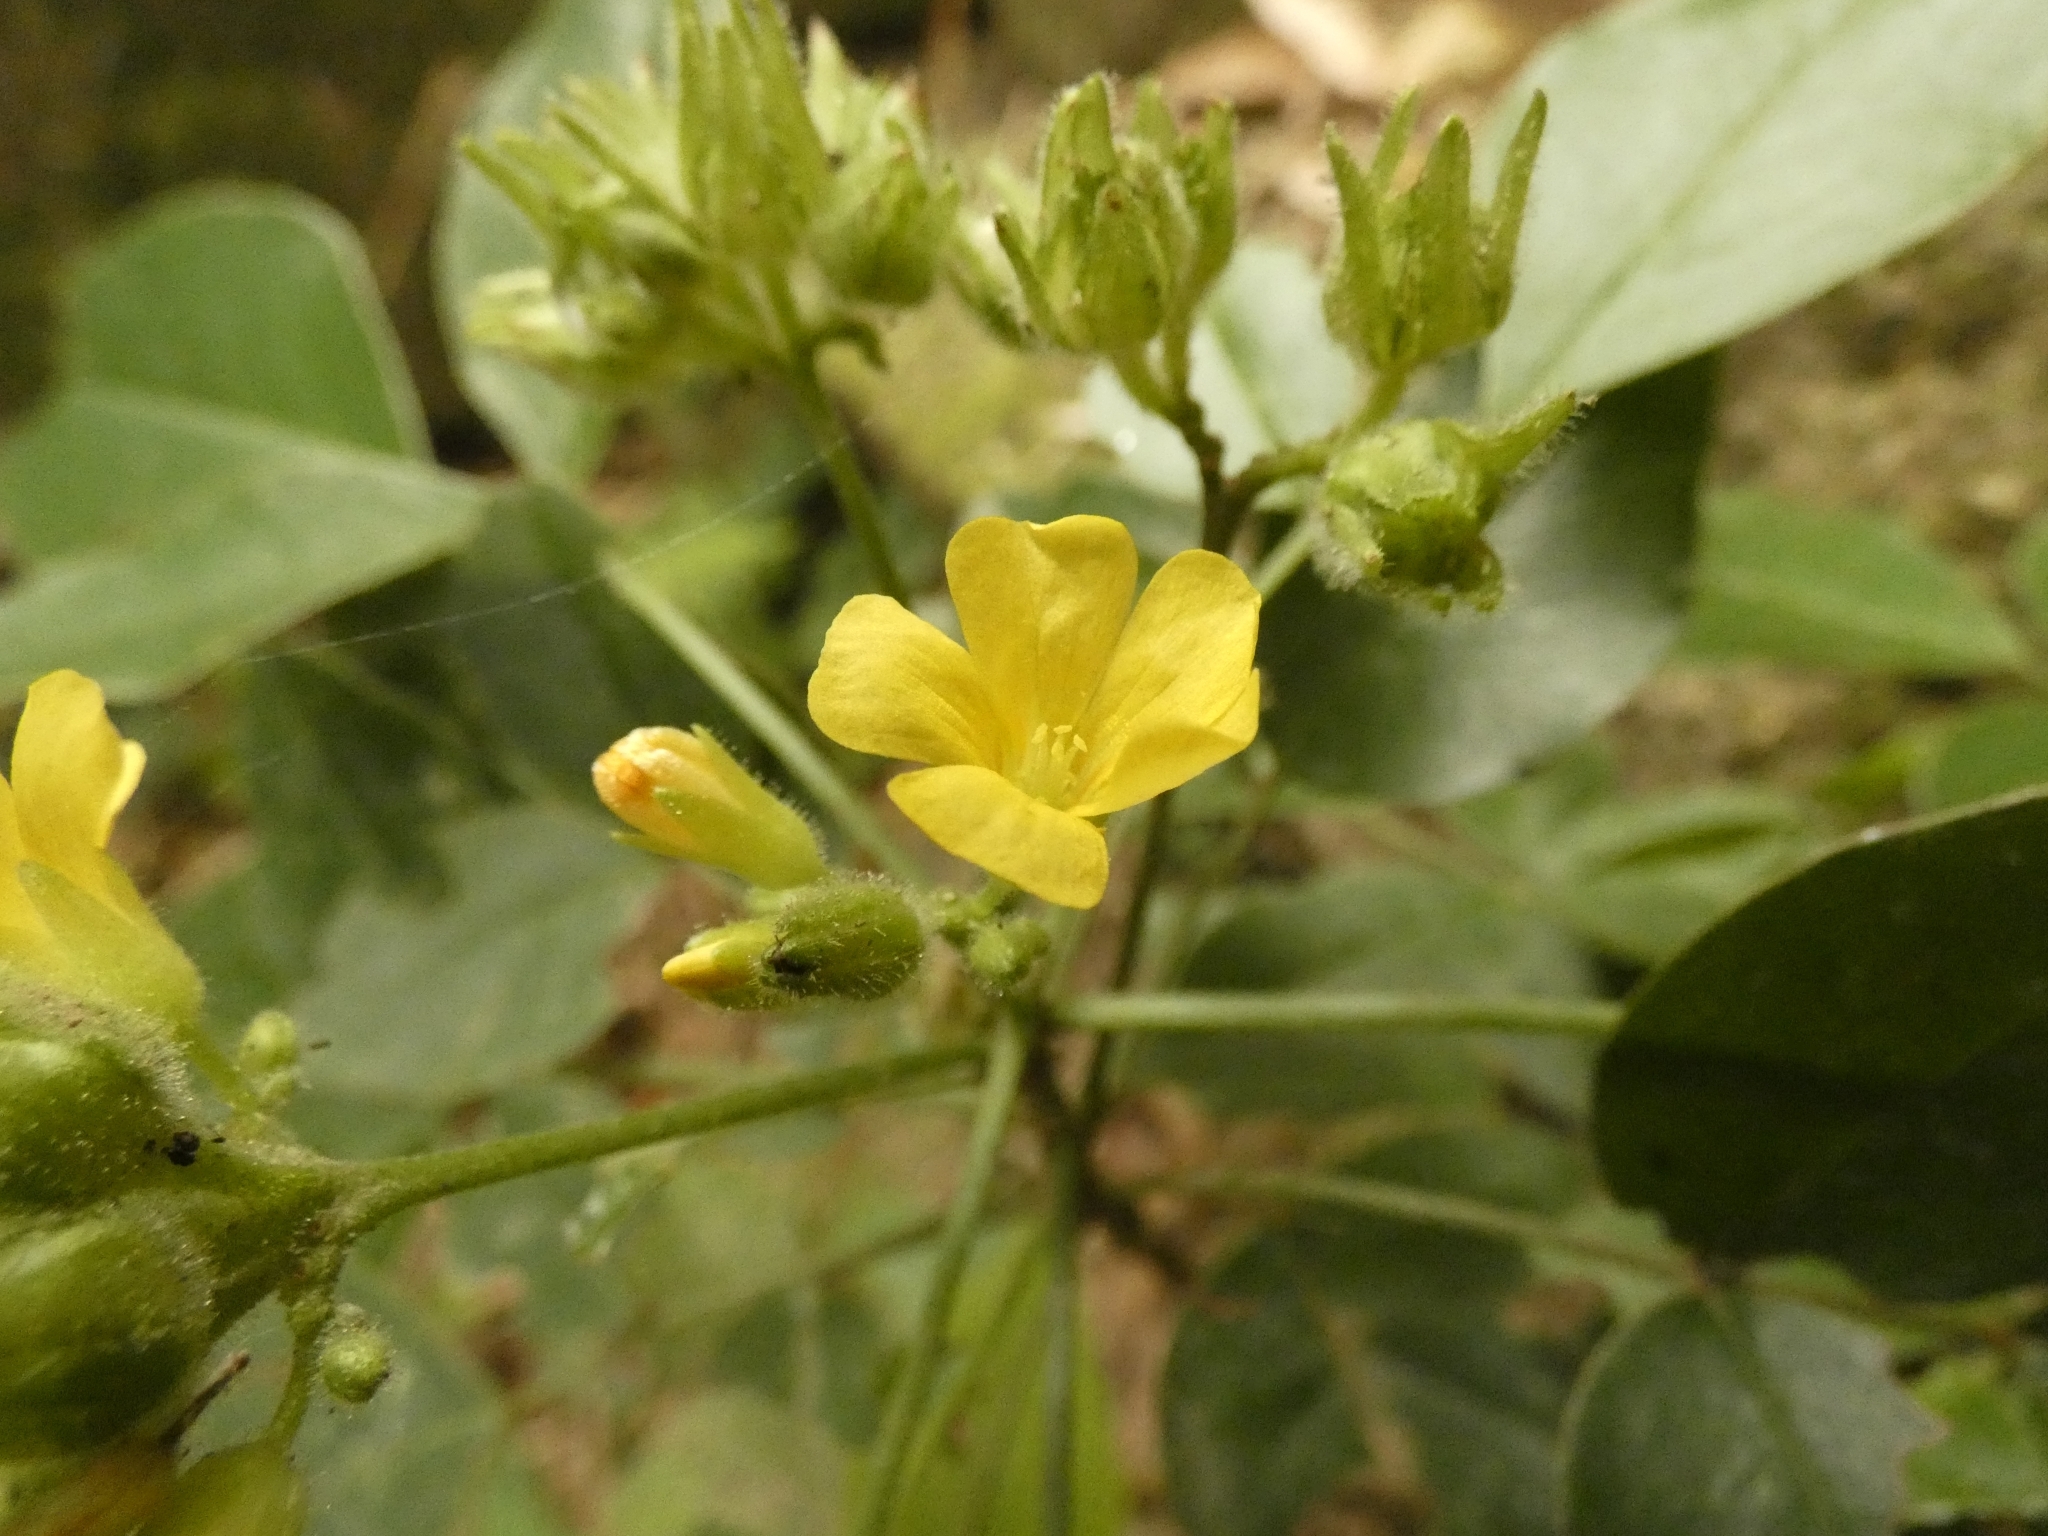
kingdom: Plantae
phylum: Tracheophyta
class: Magnoliopsida
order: Oxalidales
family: Oxalidaceae
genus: Oxalis
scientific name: Oxalis rhombeo-ovata
